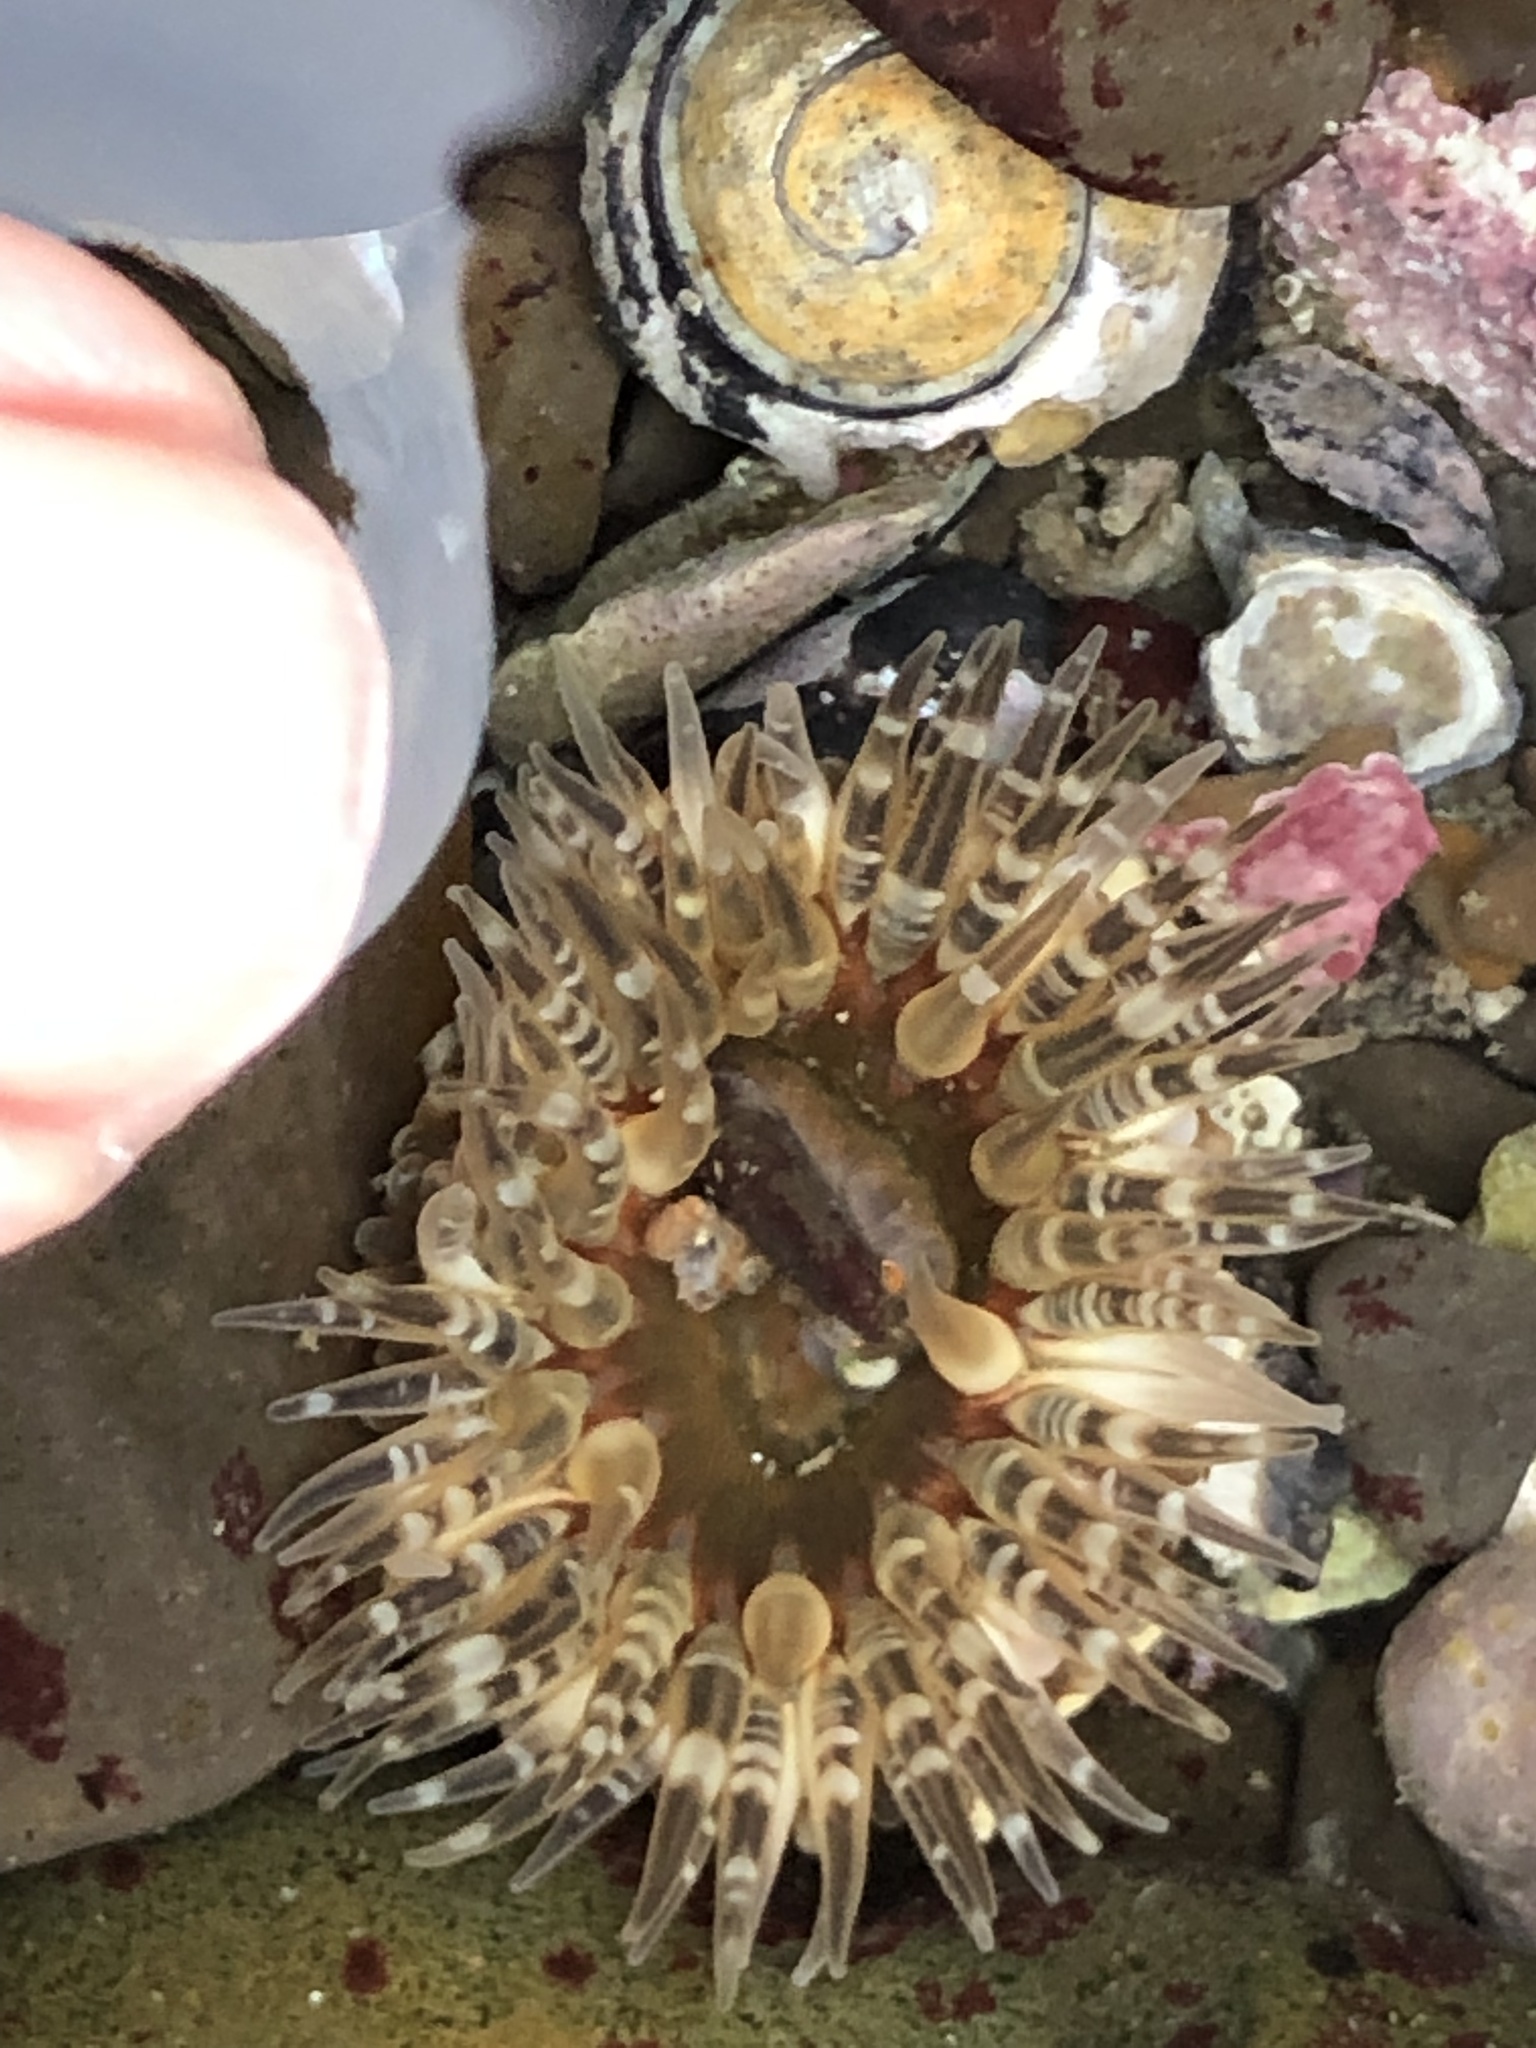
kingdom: Animalia
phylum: Cnidaria
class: Anthozoa
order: Actiniaria
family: Actiniidae
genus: Anthopleura
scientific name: Anthopleura artemisia
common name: Buried sea anemone
